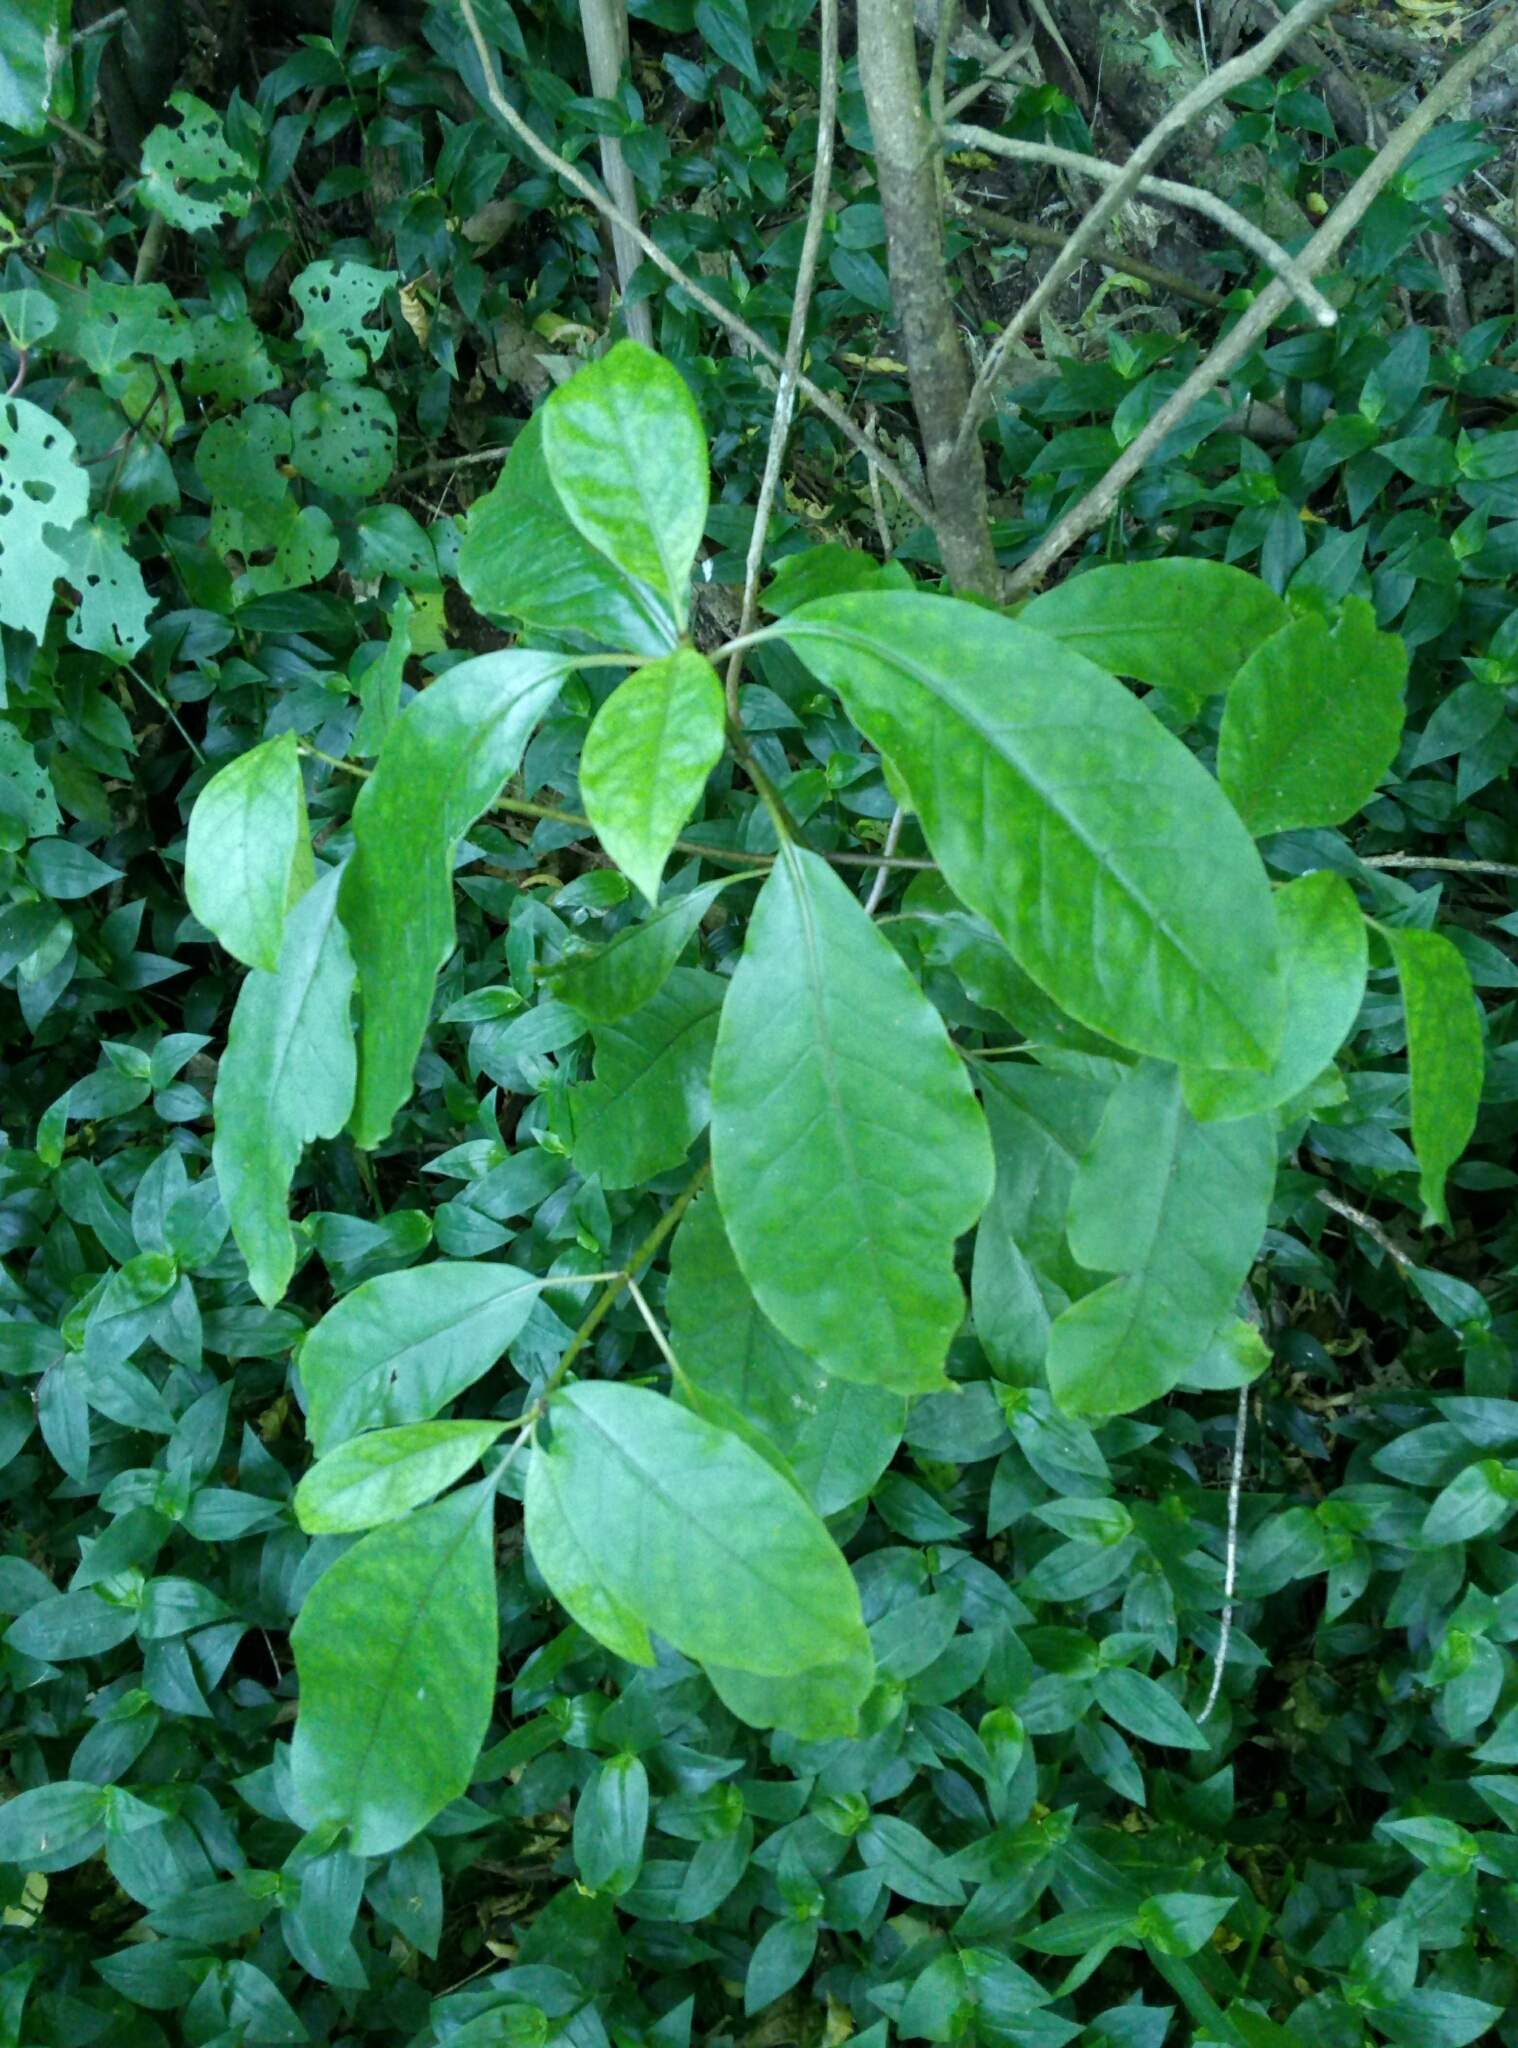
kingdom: Plantae
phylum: Tracheophyta
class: Magnoliopsida
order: Gentianales
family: Rubiaceae
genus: Coprosma
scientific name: Coprosma autumnalis
